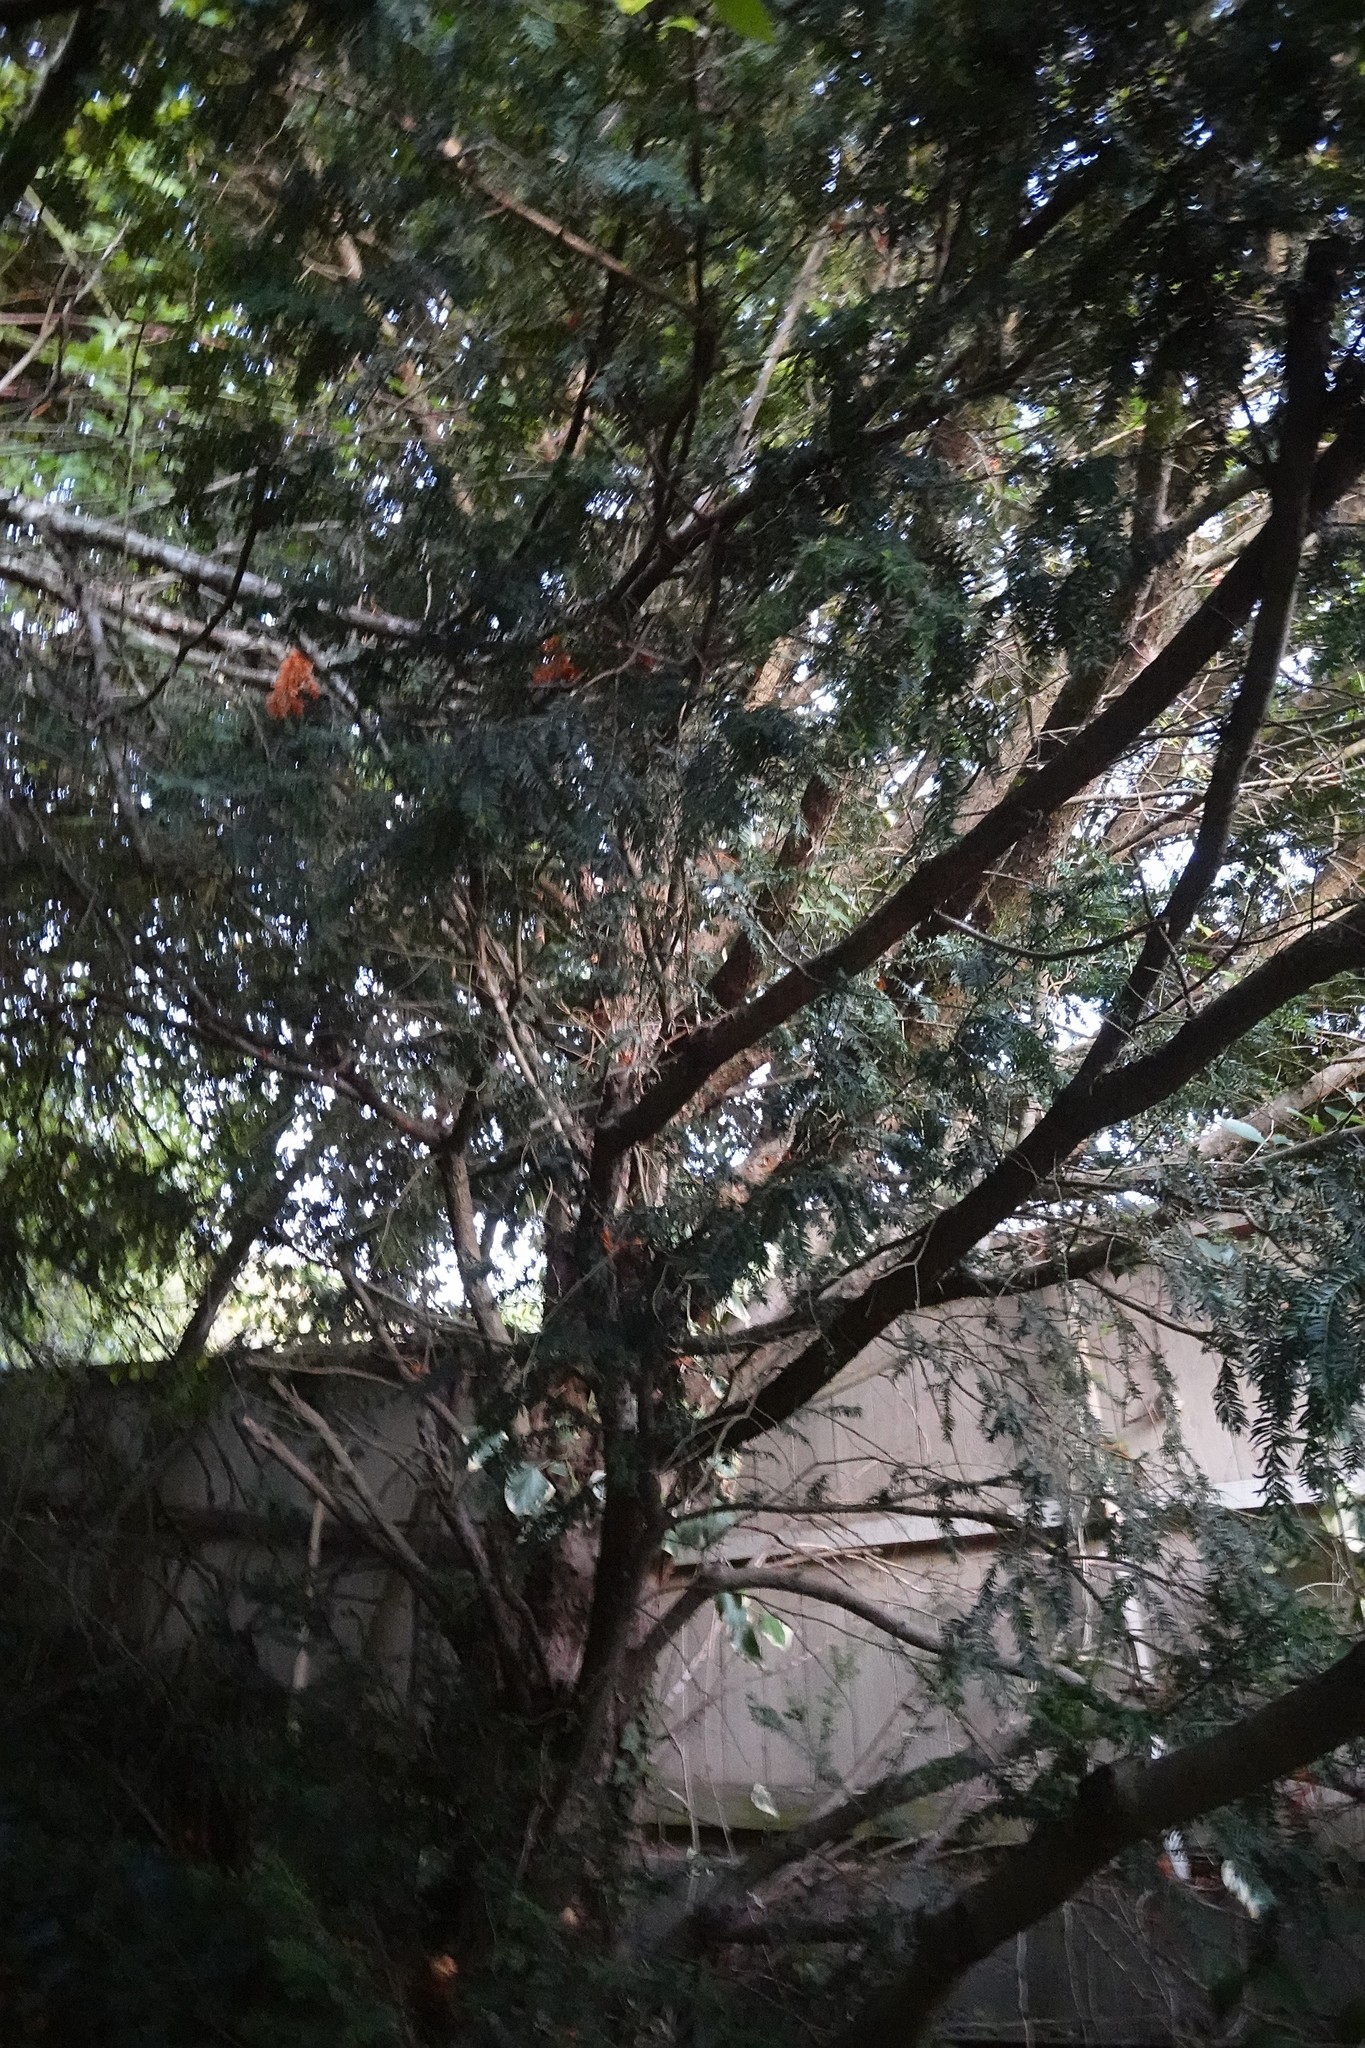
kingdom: Plantae
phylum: Tracheophyta
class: Pinopsida
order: Pinales
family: Taxaceae
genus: Taxus
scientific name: Taxus baccata
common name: Yew
